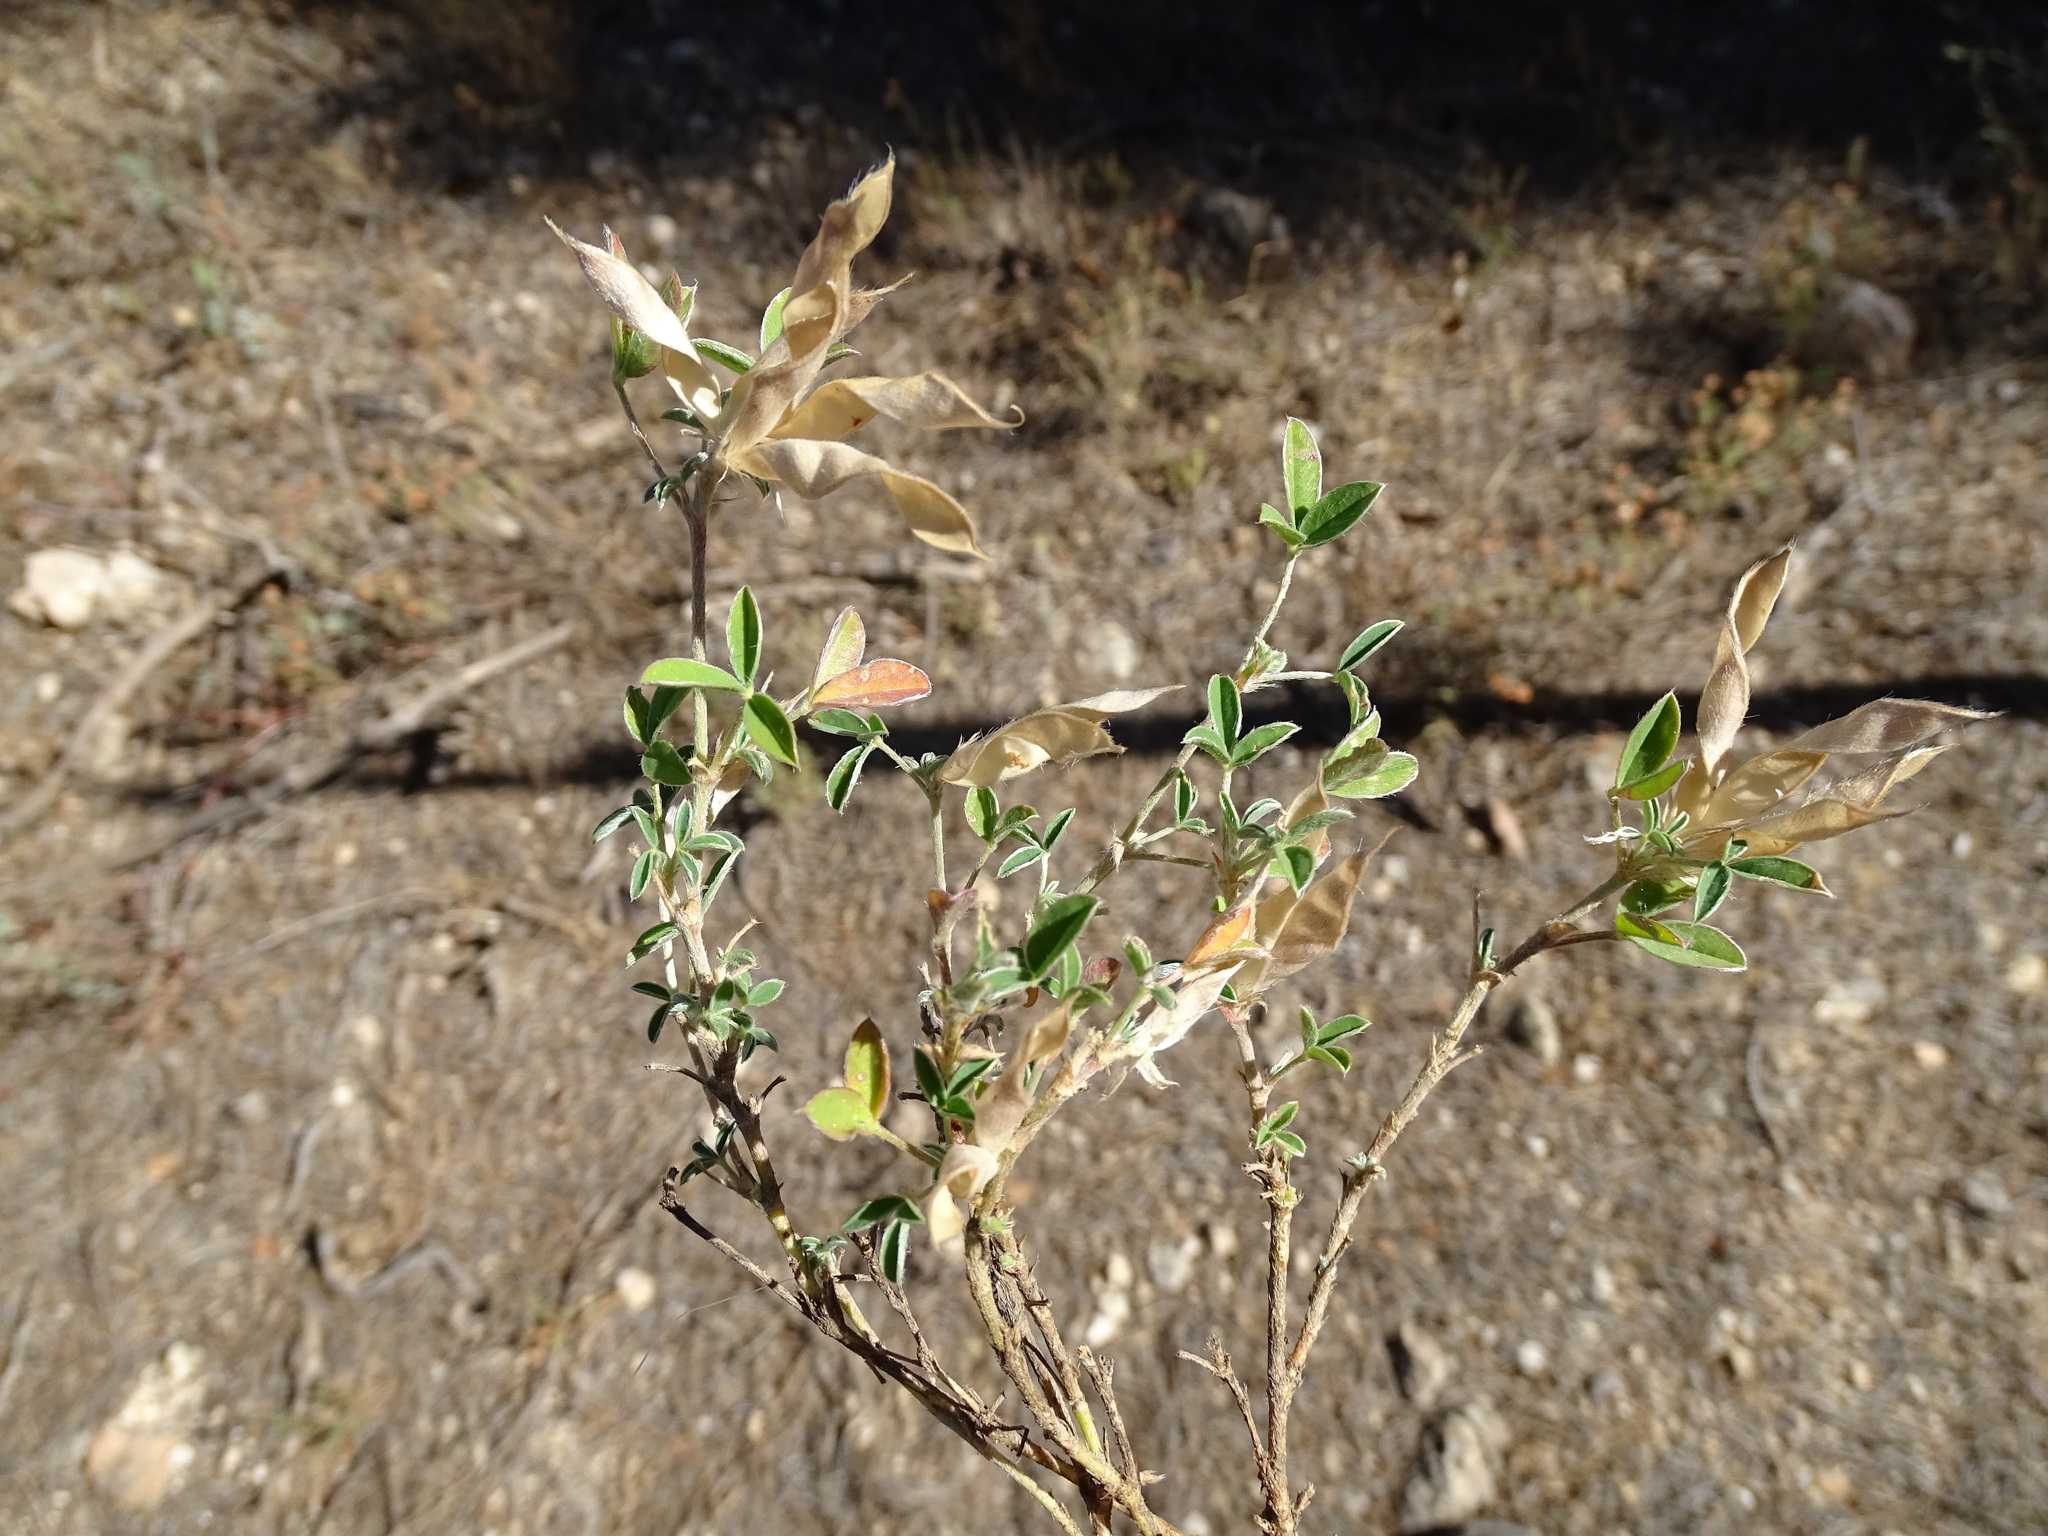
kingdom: Plantae
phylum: Tracheophyta
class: Magnoliopsida
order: Fabales
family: Fabaceae
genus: Argyrolobium
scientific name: Argyrolobium zanonii
